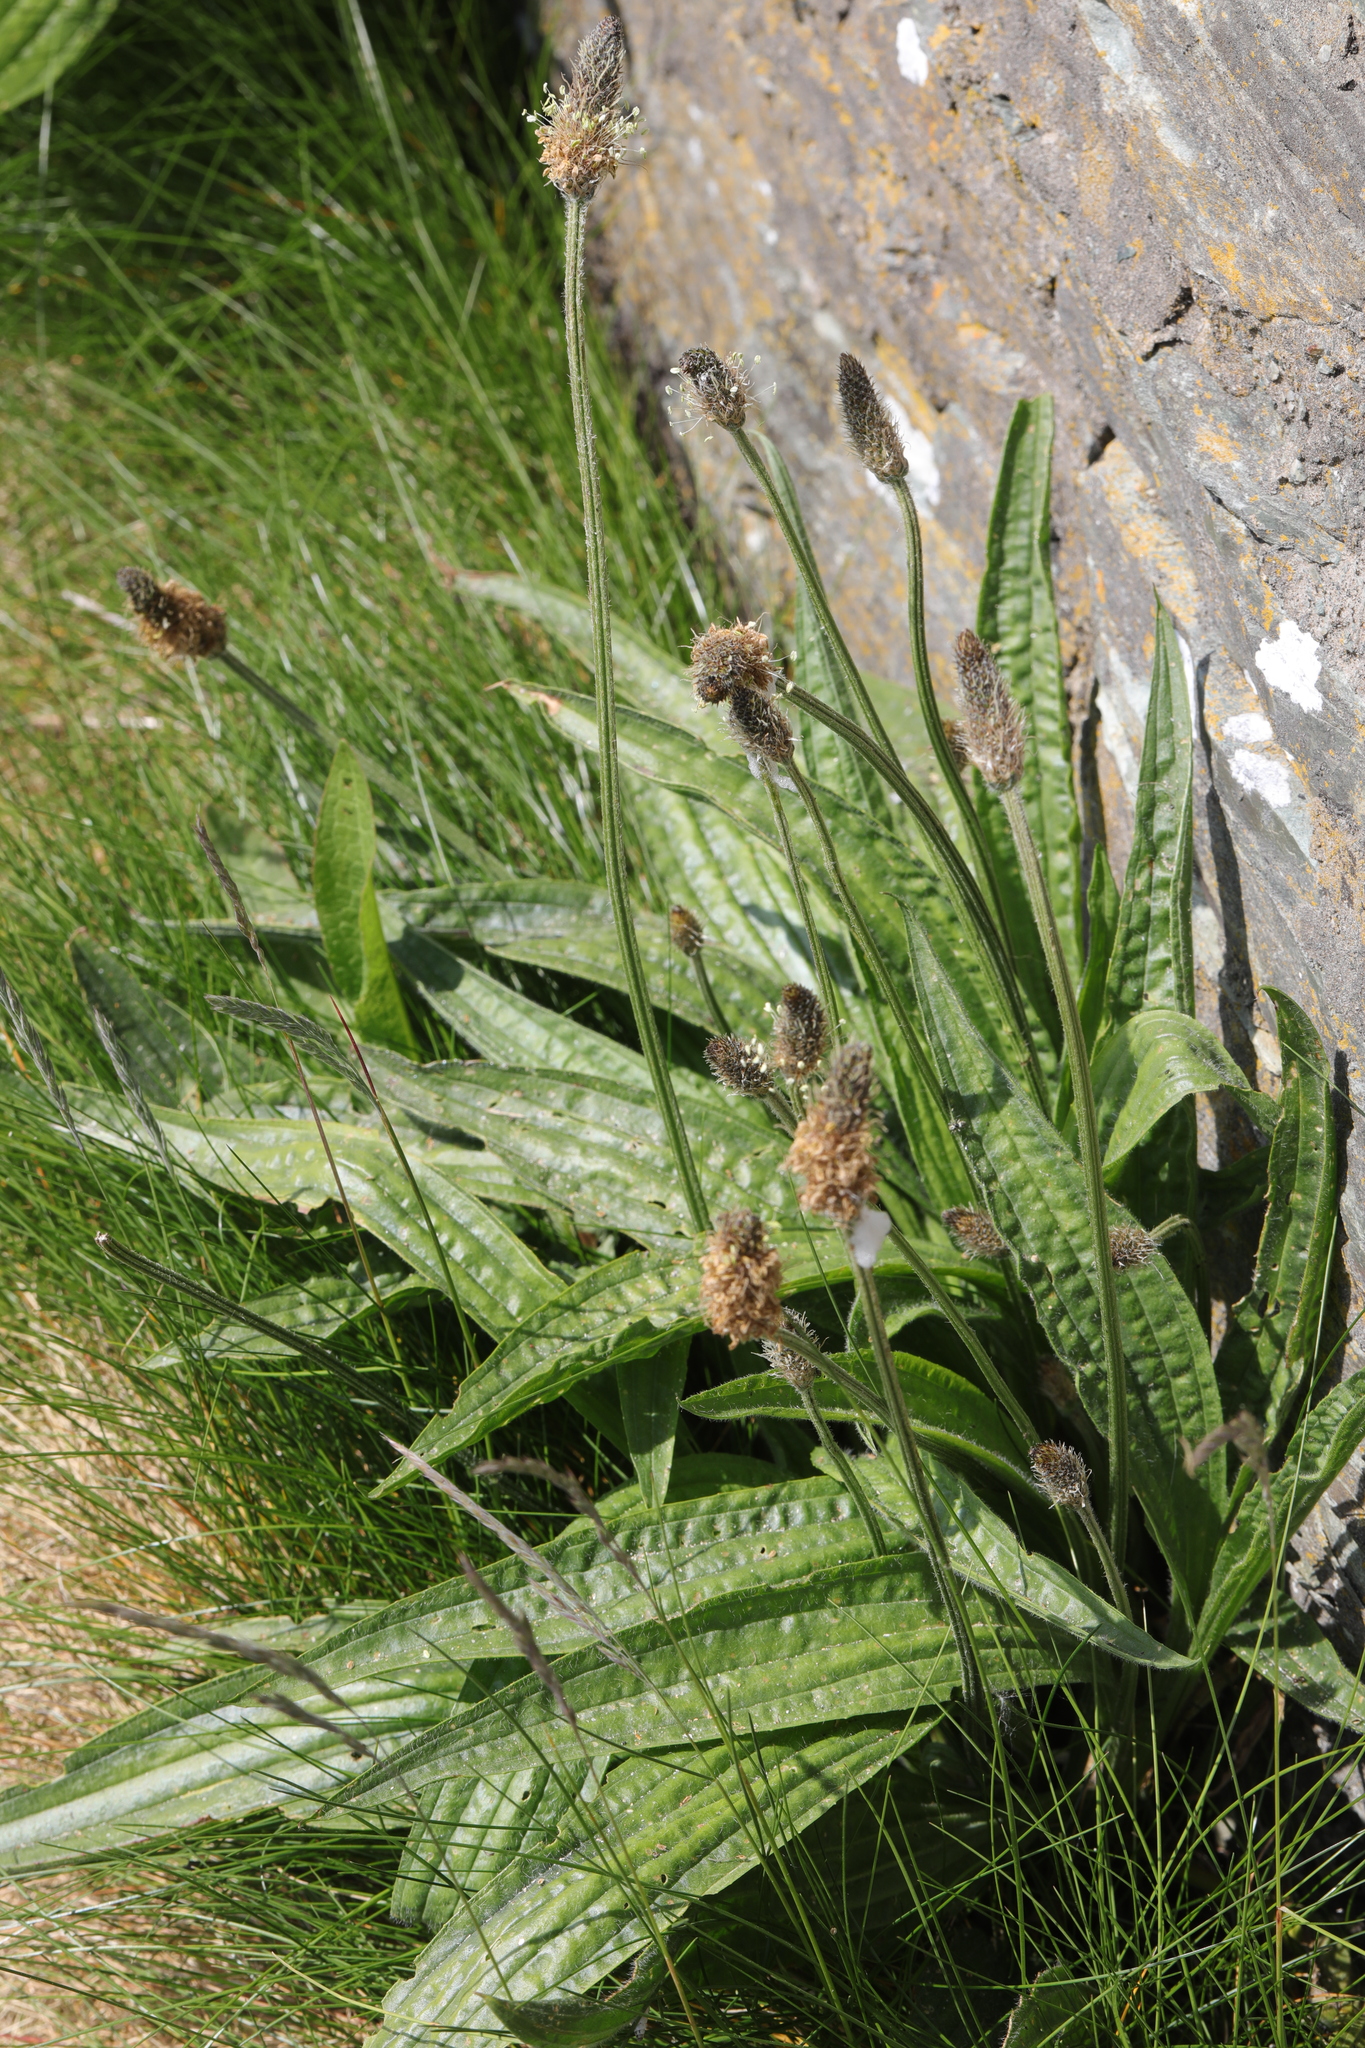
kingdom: Plantae
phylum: Tracheophyta
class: Magnoliopsida
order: Lamiales
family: Plantaginaceae
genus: Plantago
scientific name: Plantago lanceolata
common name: Ribwort plantain
